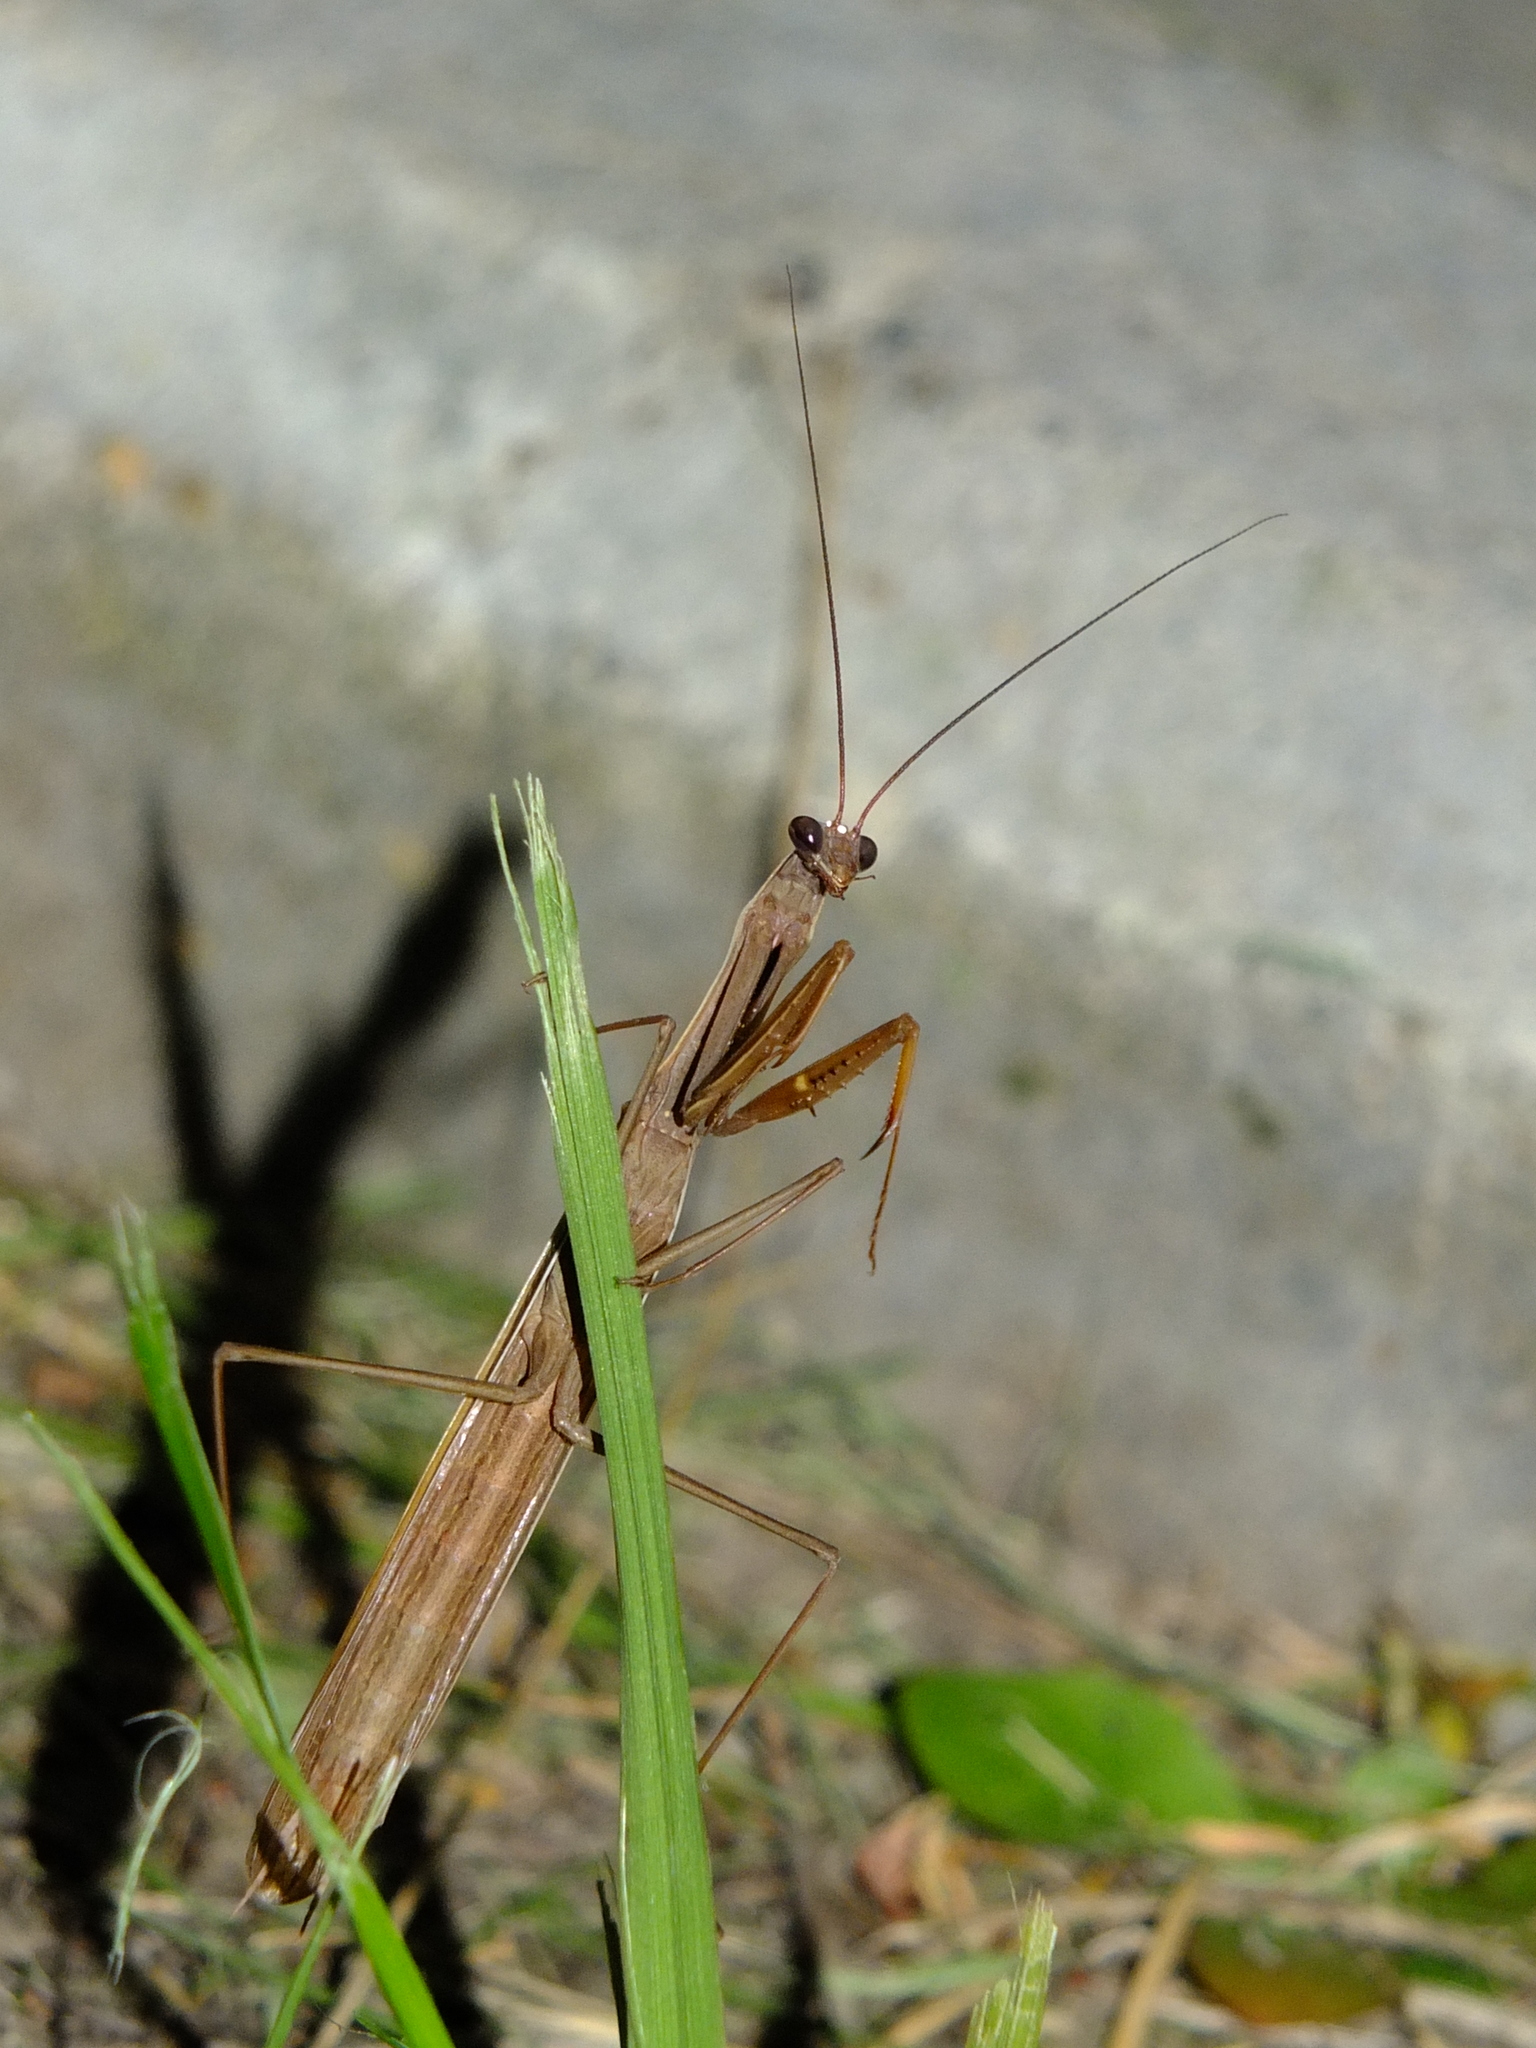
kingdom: Animalia
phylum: Arthropoda
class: Insecta
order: Mantodea
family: Mantidae
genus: Mantis
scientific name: Mantis religiosa
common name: Praying mantis
